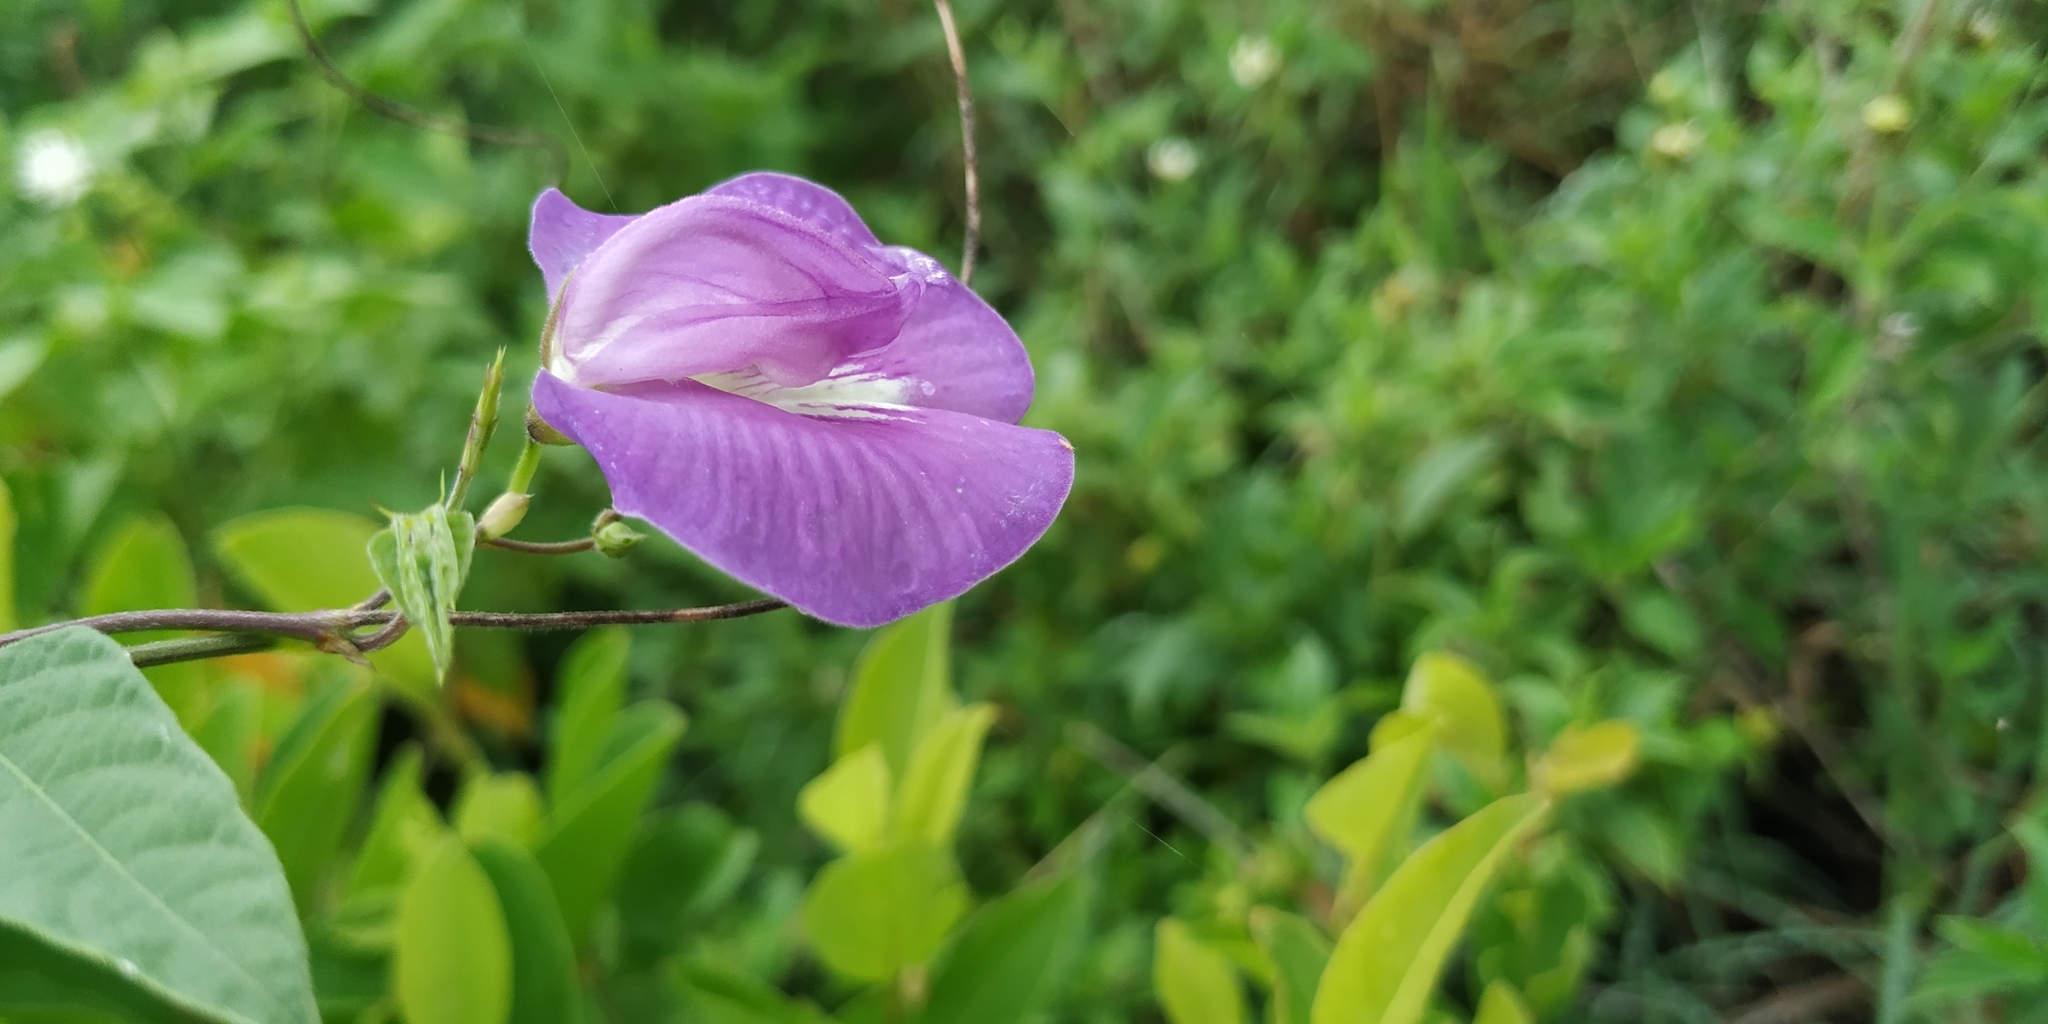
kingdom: Plantae
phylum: Tracheophyta
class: Magnoliopsida
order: Fabales
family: Fabaceae
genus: Centrosema
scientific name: Centrosema virginianum
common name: Butterfly-pea
